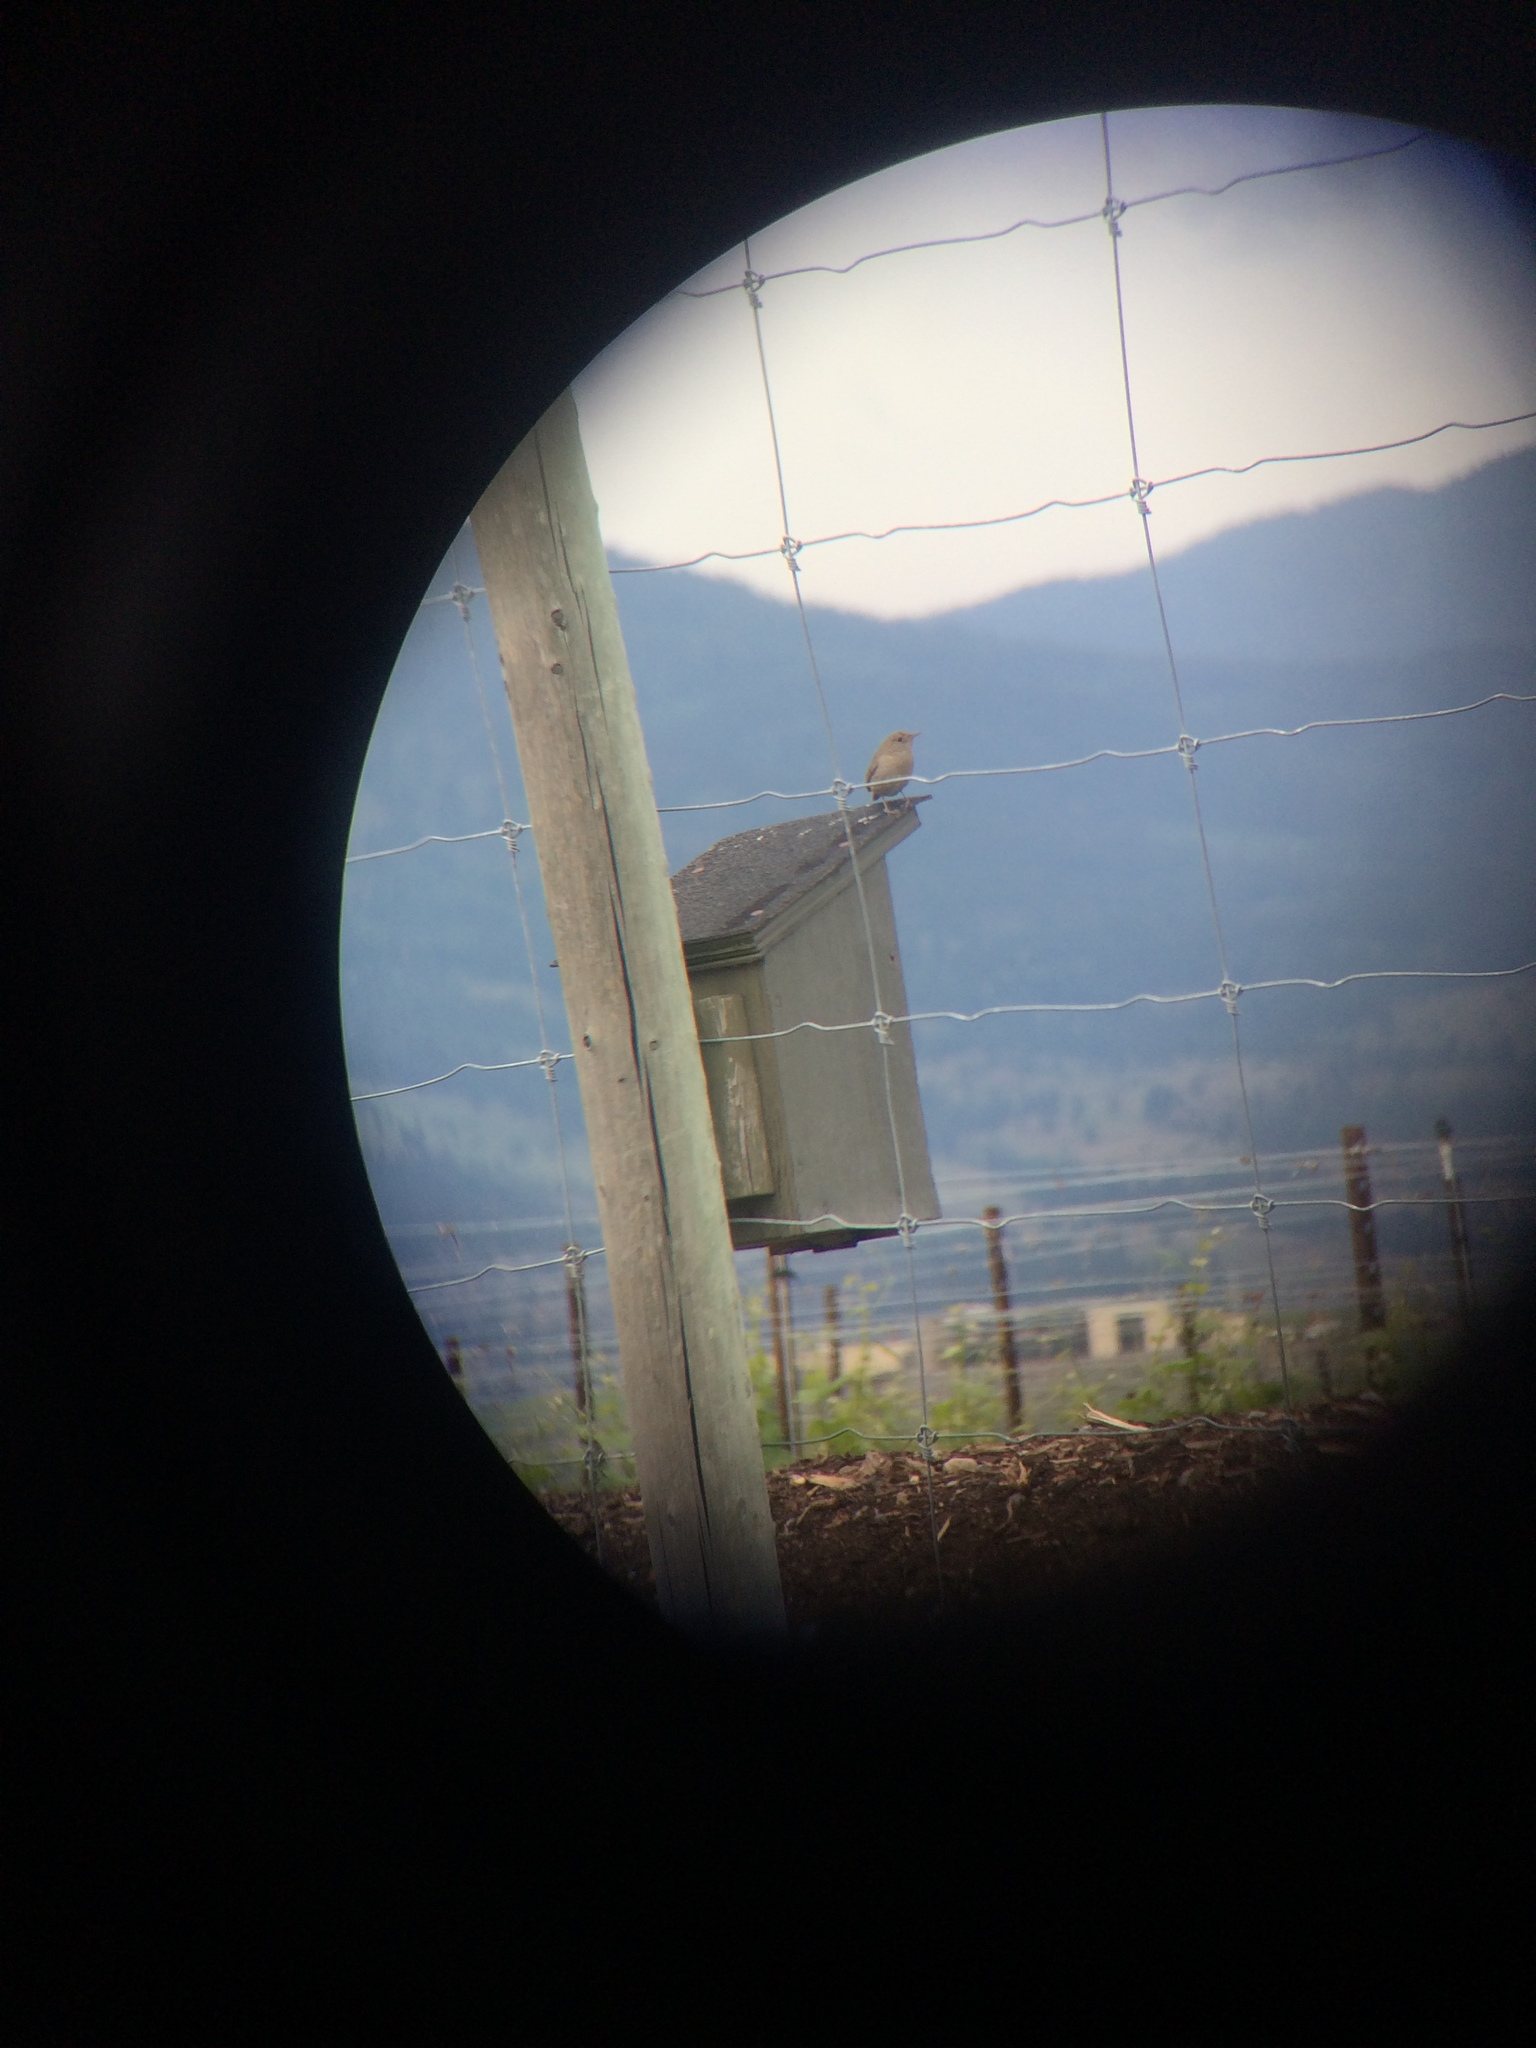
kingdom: Animalia
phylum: Chordata
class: Aves
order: Passeriformes
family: Troglodytidae
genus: Troglodytes
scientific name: Troglodytes aedon
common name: House wren
